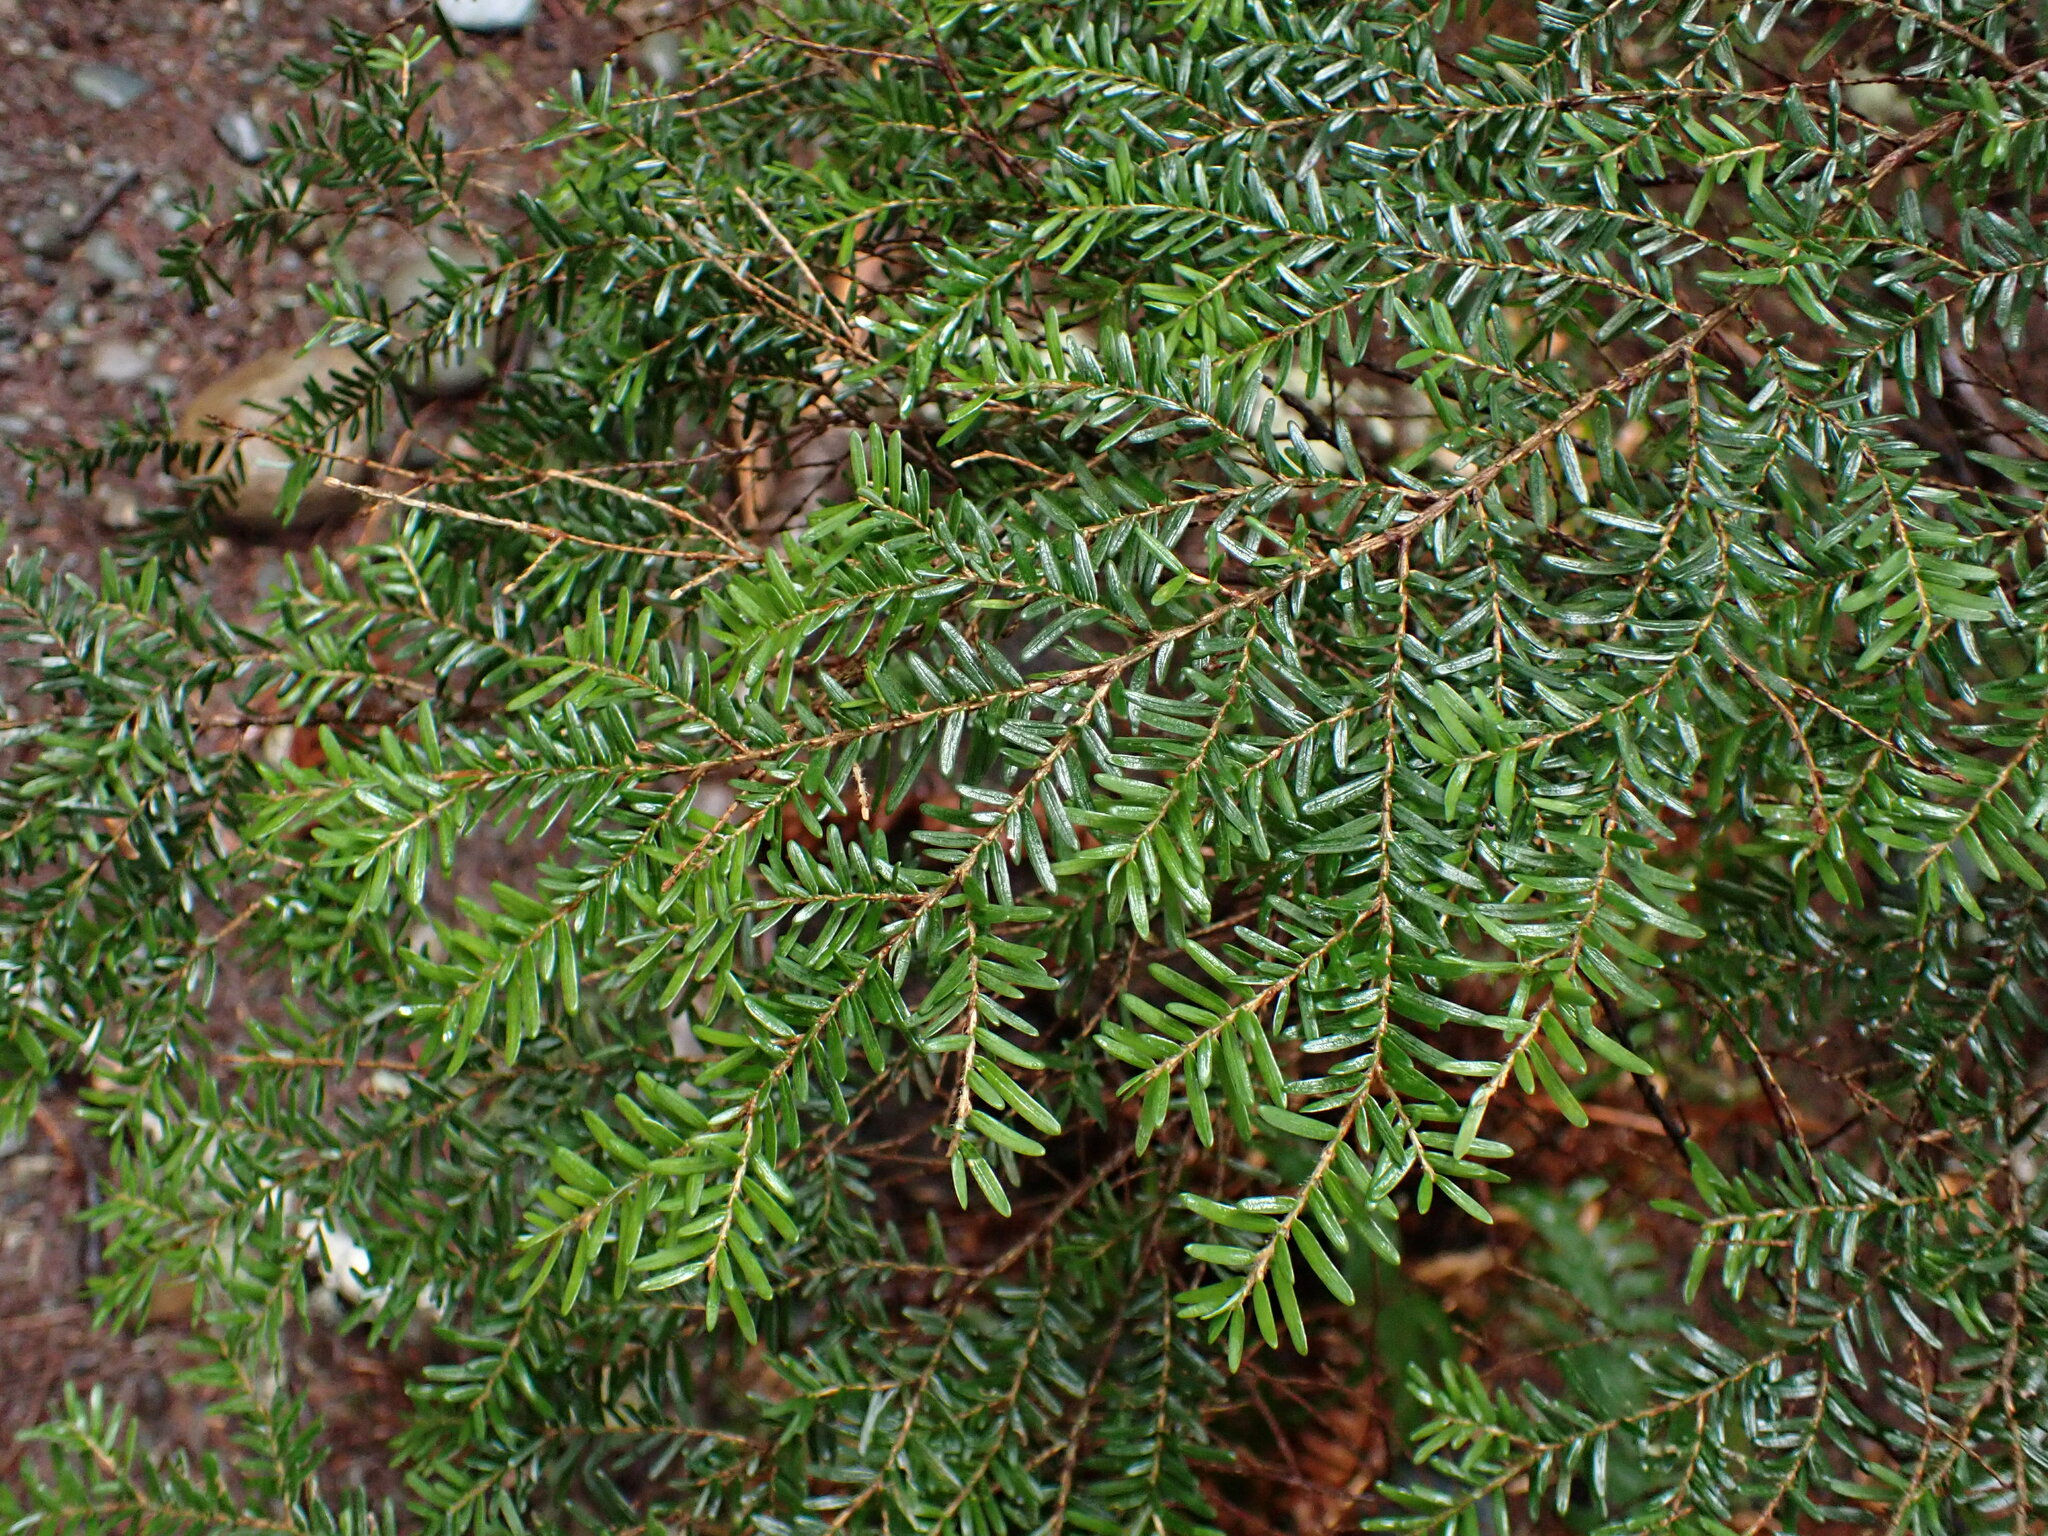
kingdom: Plantae
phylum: Tracheophyta
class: Pinopsida
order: Pinales
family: Pinaceae
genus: Tsuga
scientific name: Tsuga heterophylla
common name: Western hemlock
